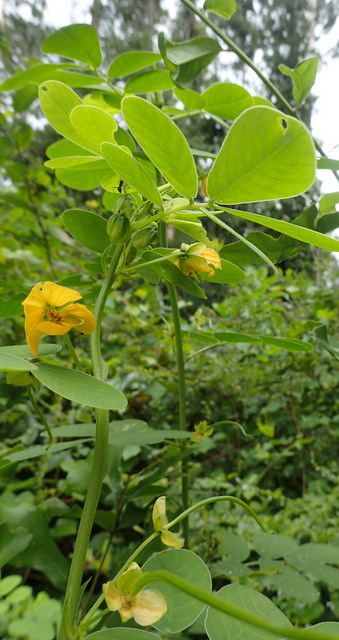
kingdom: Plantae
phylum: Tracheophyta
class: Magnoliopsida
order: Fabales
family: Fabaceae
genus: Senna
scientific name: Senna obtusifolia
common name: Java-bean
